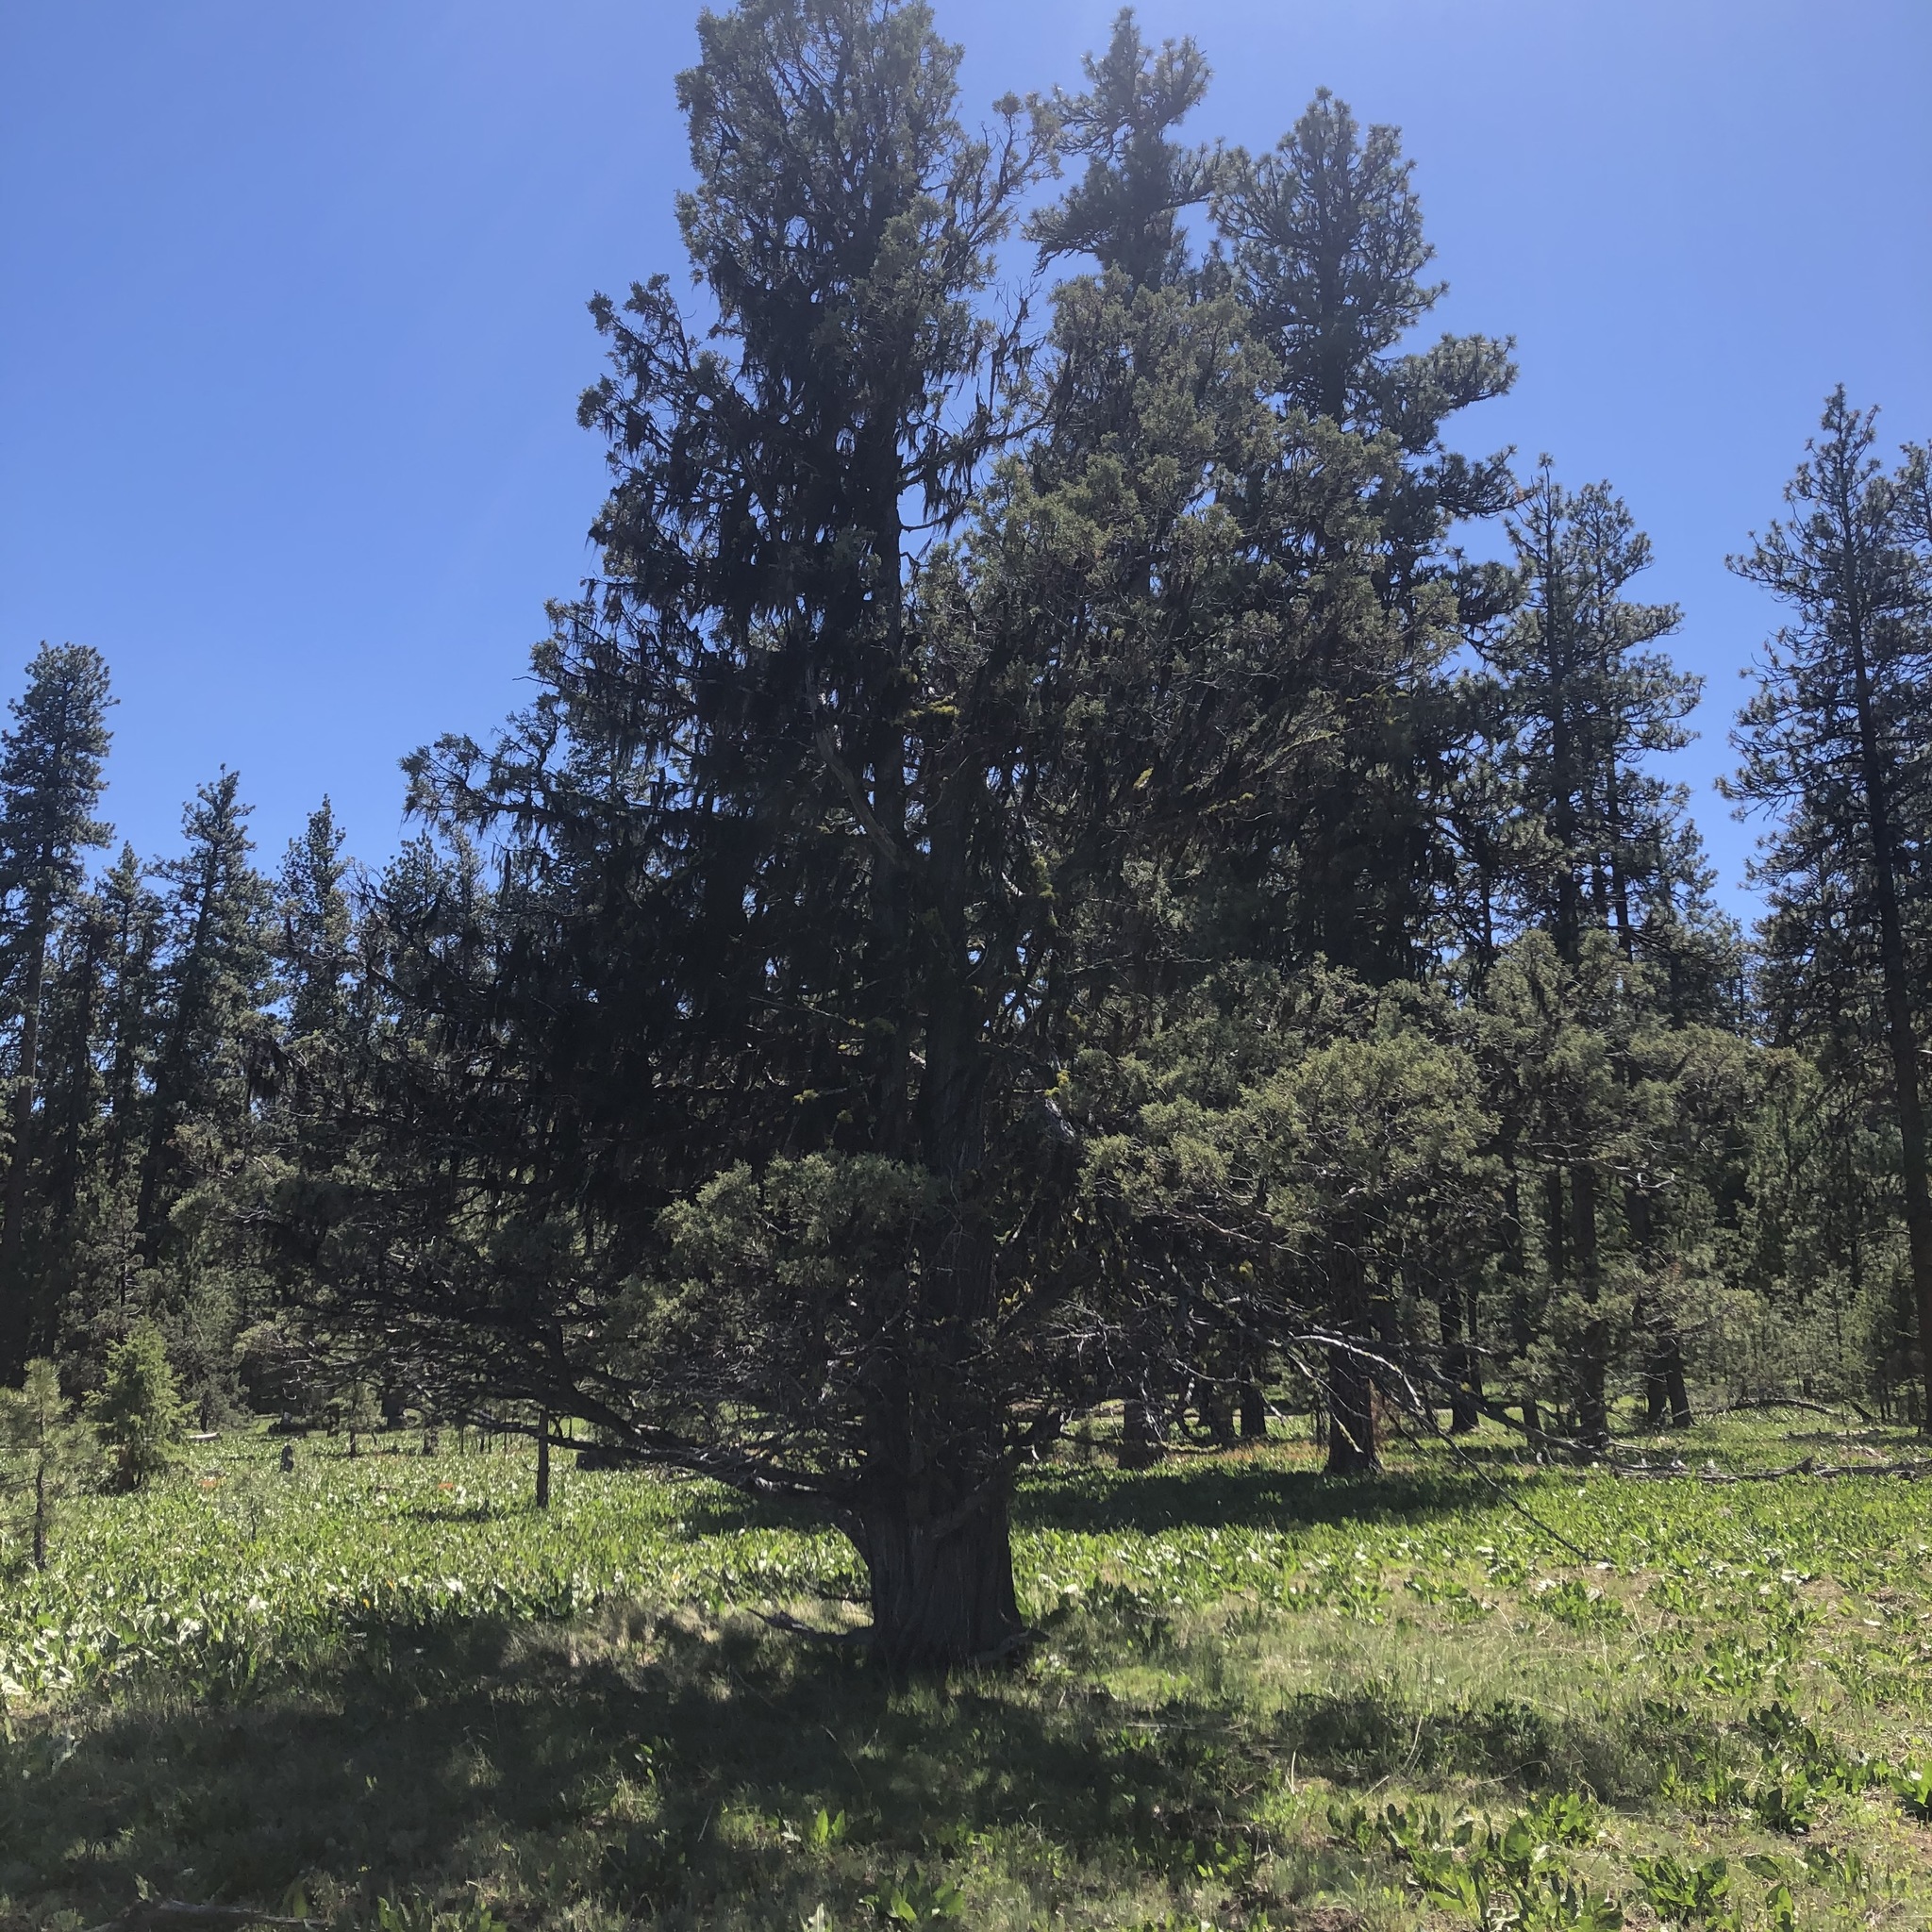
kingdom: Plantae
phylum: Tracheophyta
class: Pinopsida
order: Pinales
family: Cupressaceae
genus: Juniperus
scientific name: Juniperus occidentalis
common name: Western juniper
